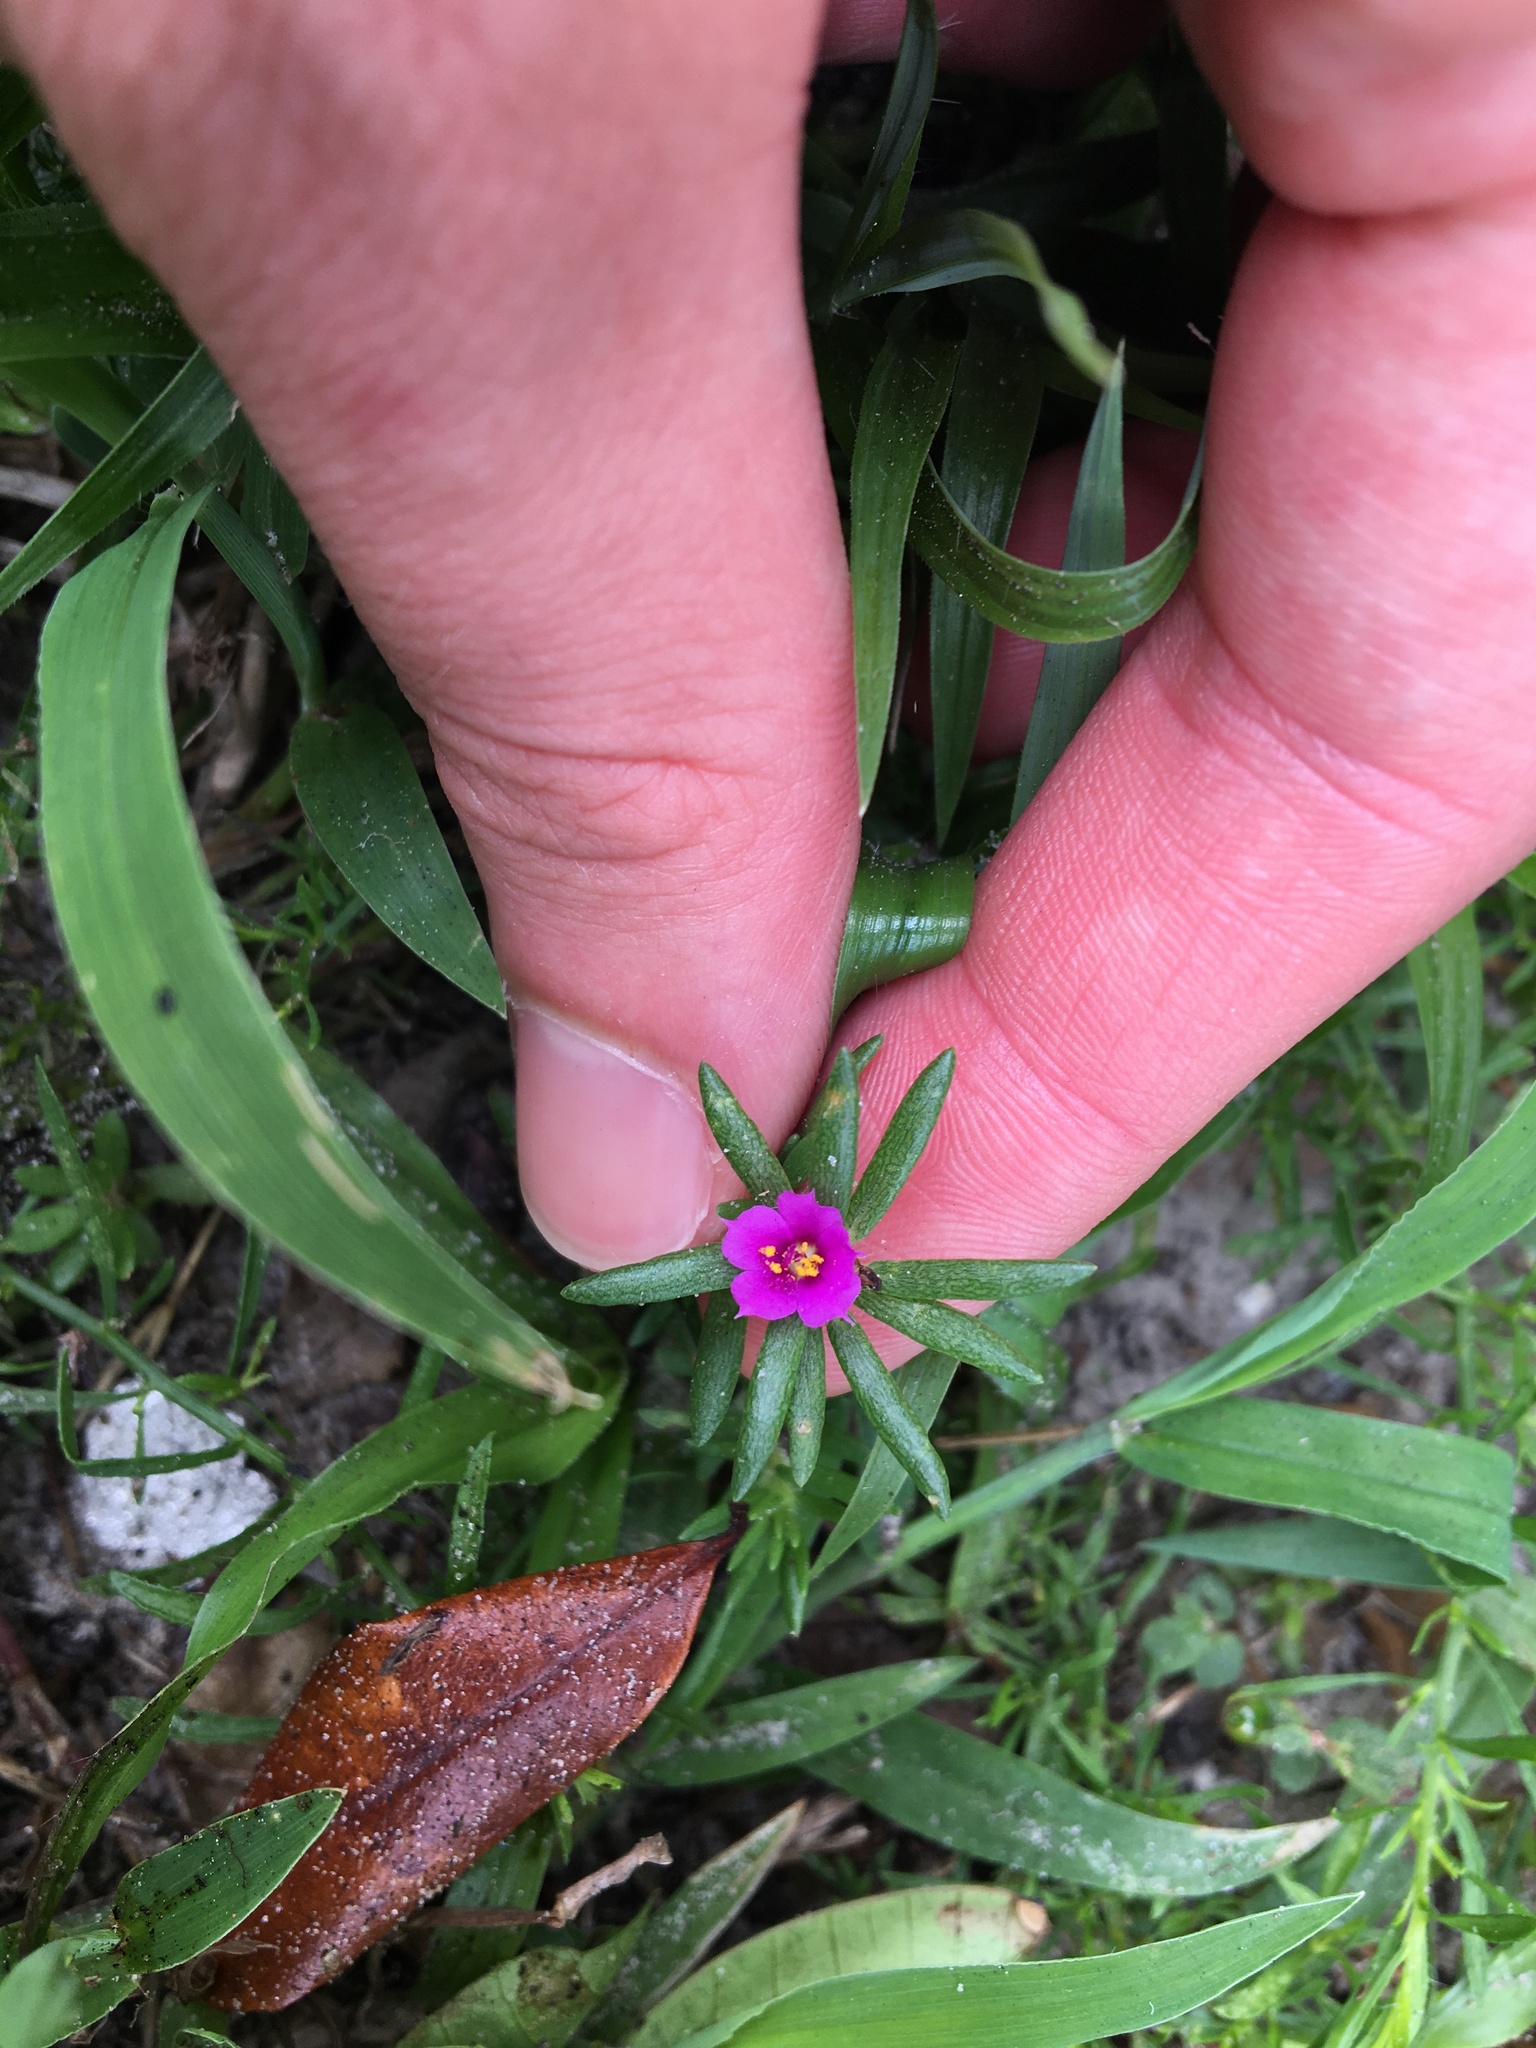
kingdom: Plantae
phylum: Tracheophyta
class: Magnoliopsida
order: Caryophyllales
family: Portulacaceae
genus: Portulaca
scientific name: Portulaca pilosa
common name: Kiss me quick
